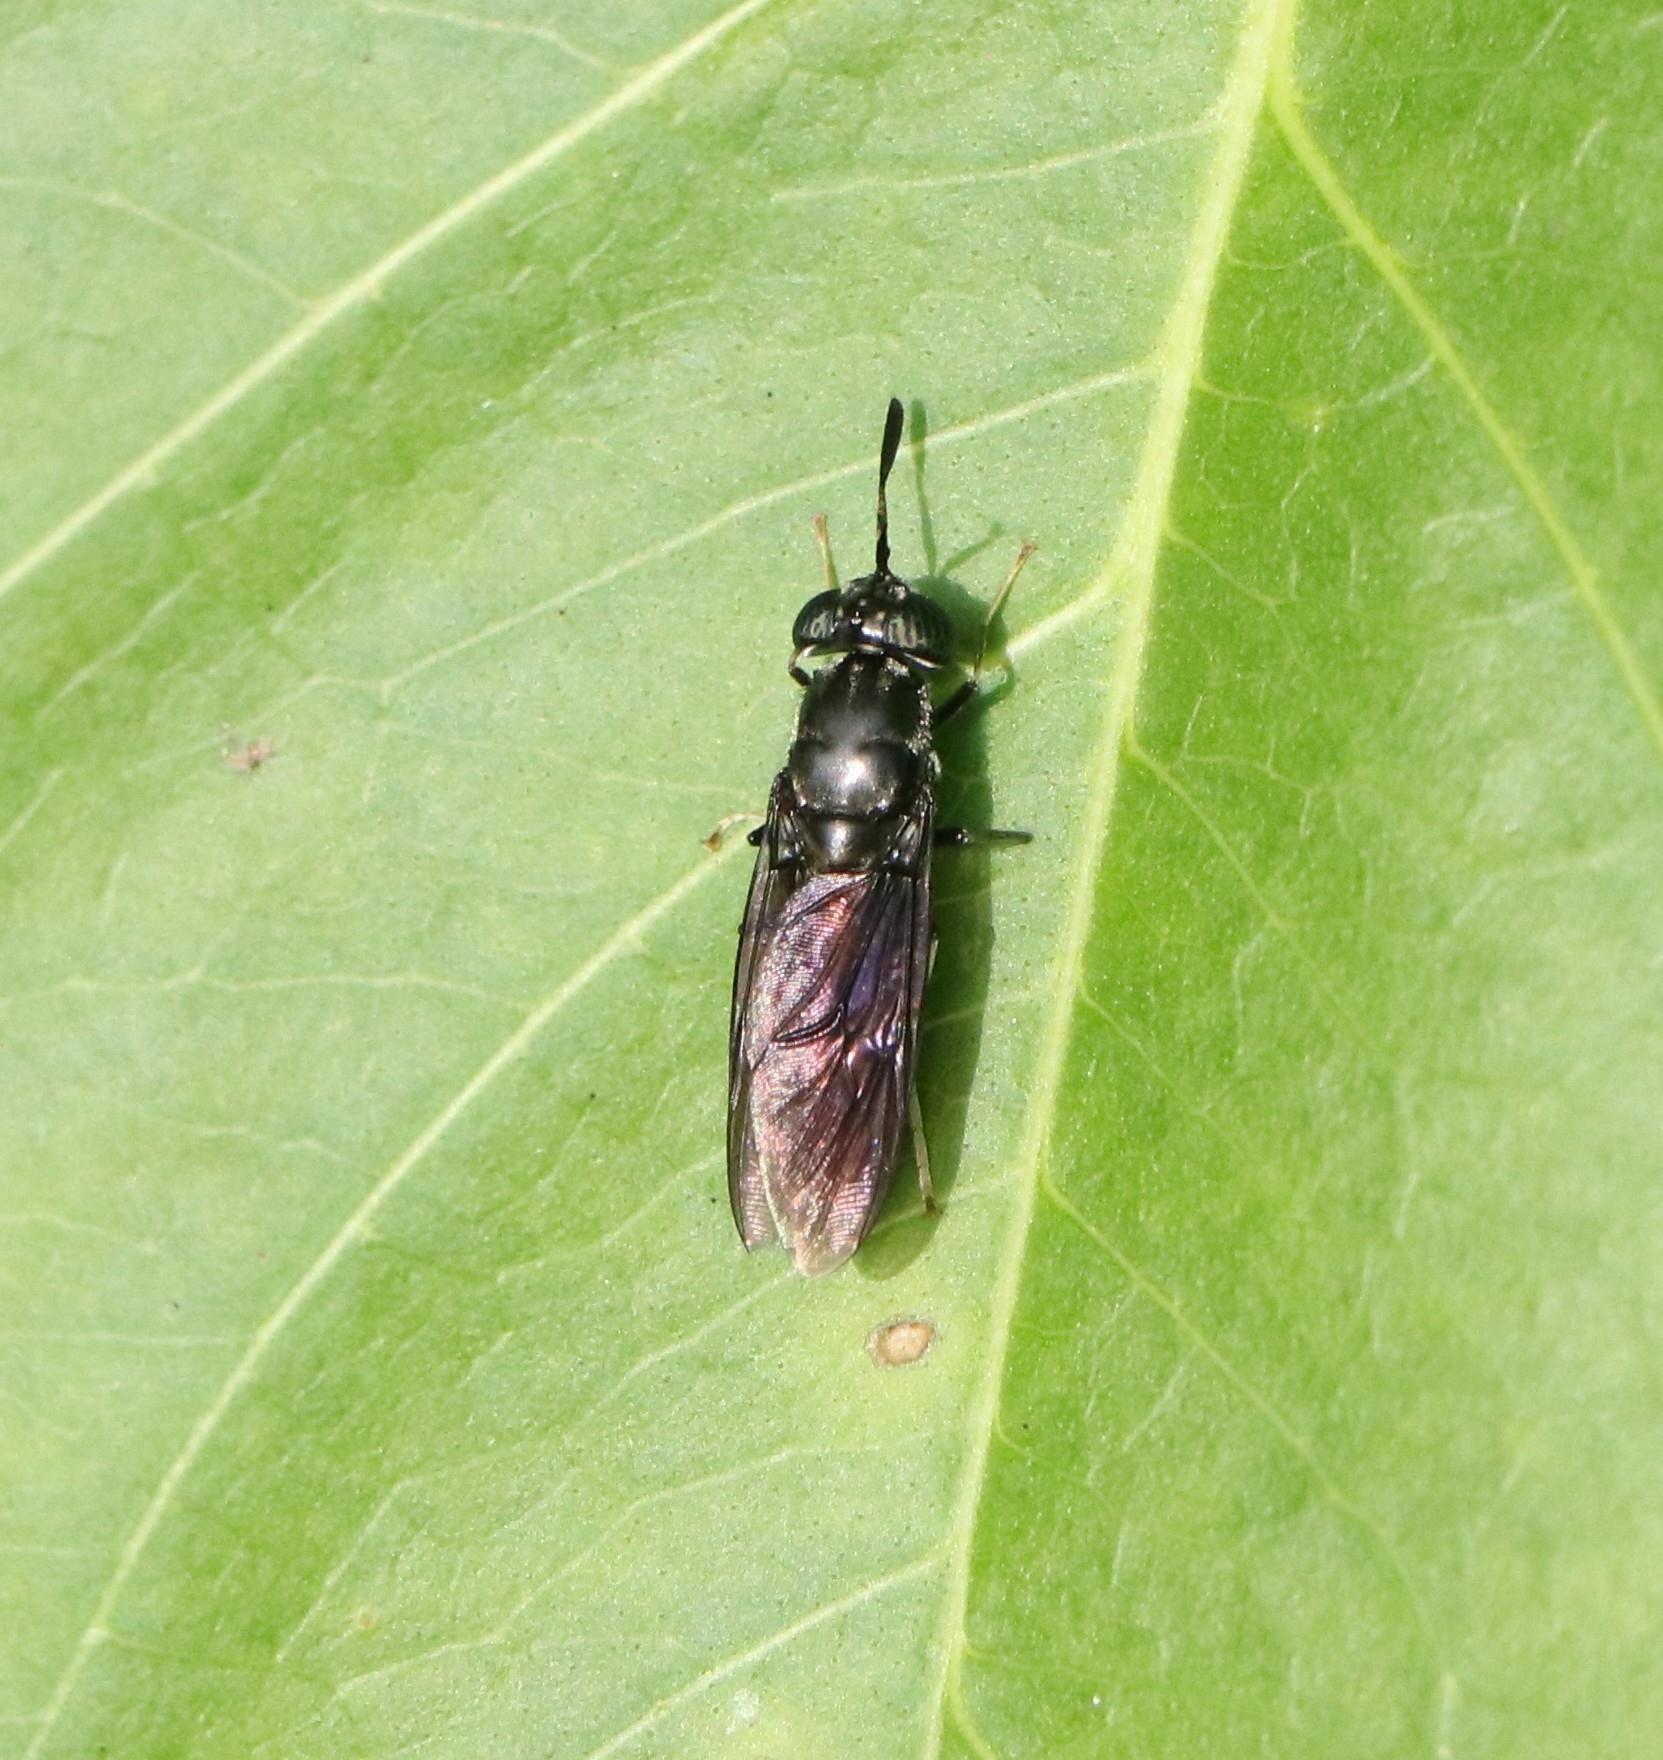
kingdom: Animalia
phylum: Arthropoda
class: Insecta
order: Diptera
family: Stratiomyidae
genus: Hermetia
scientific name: Hermetia illucens
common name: Black soldier fly
